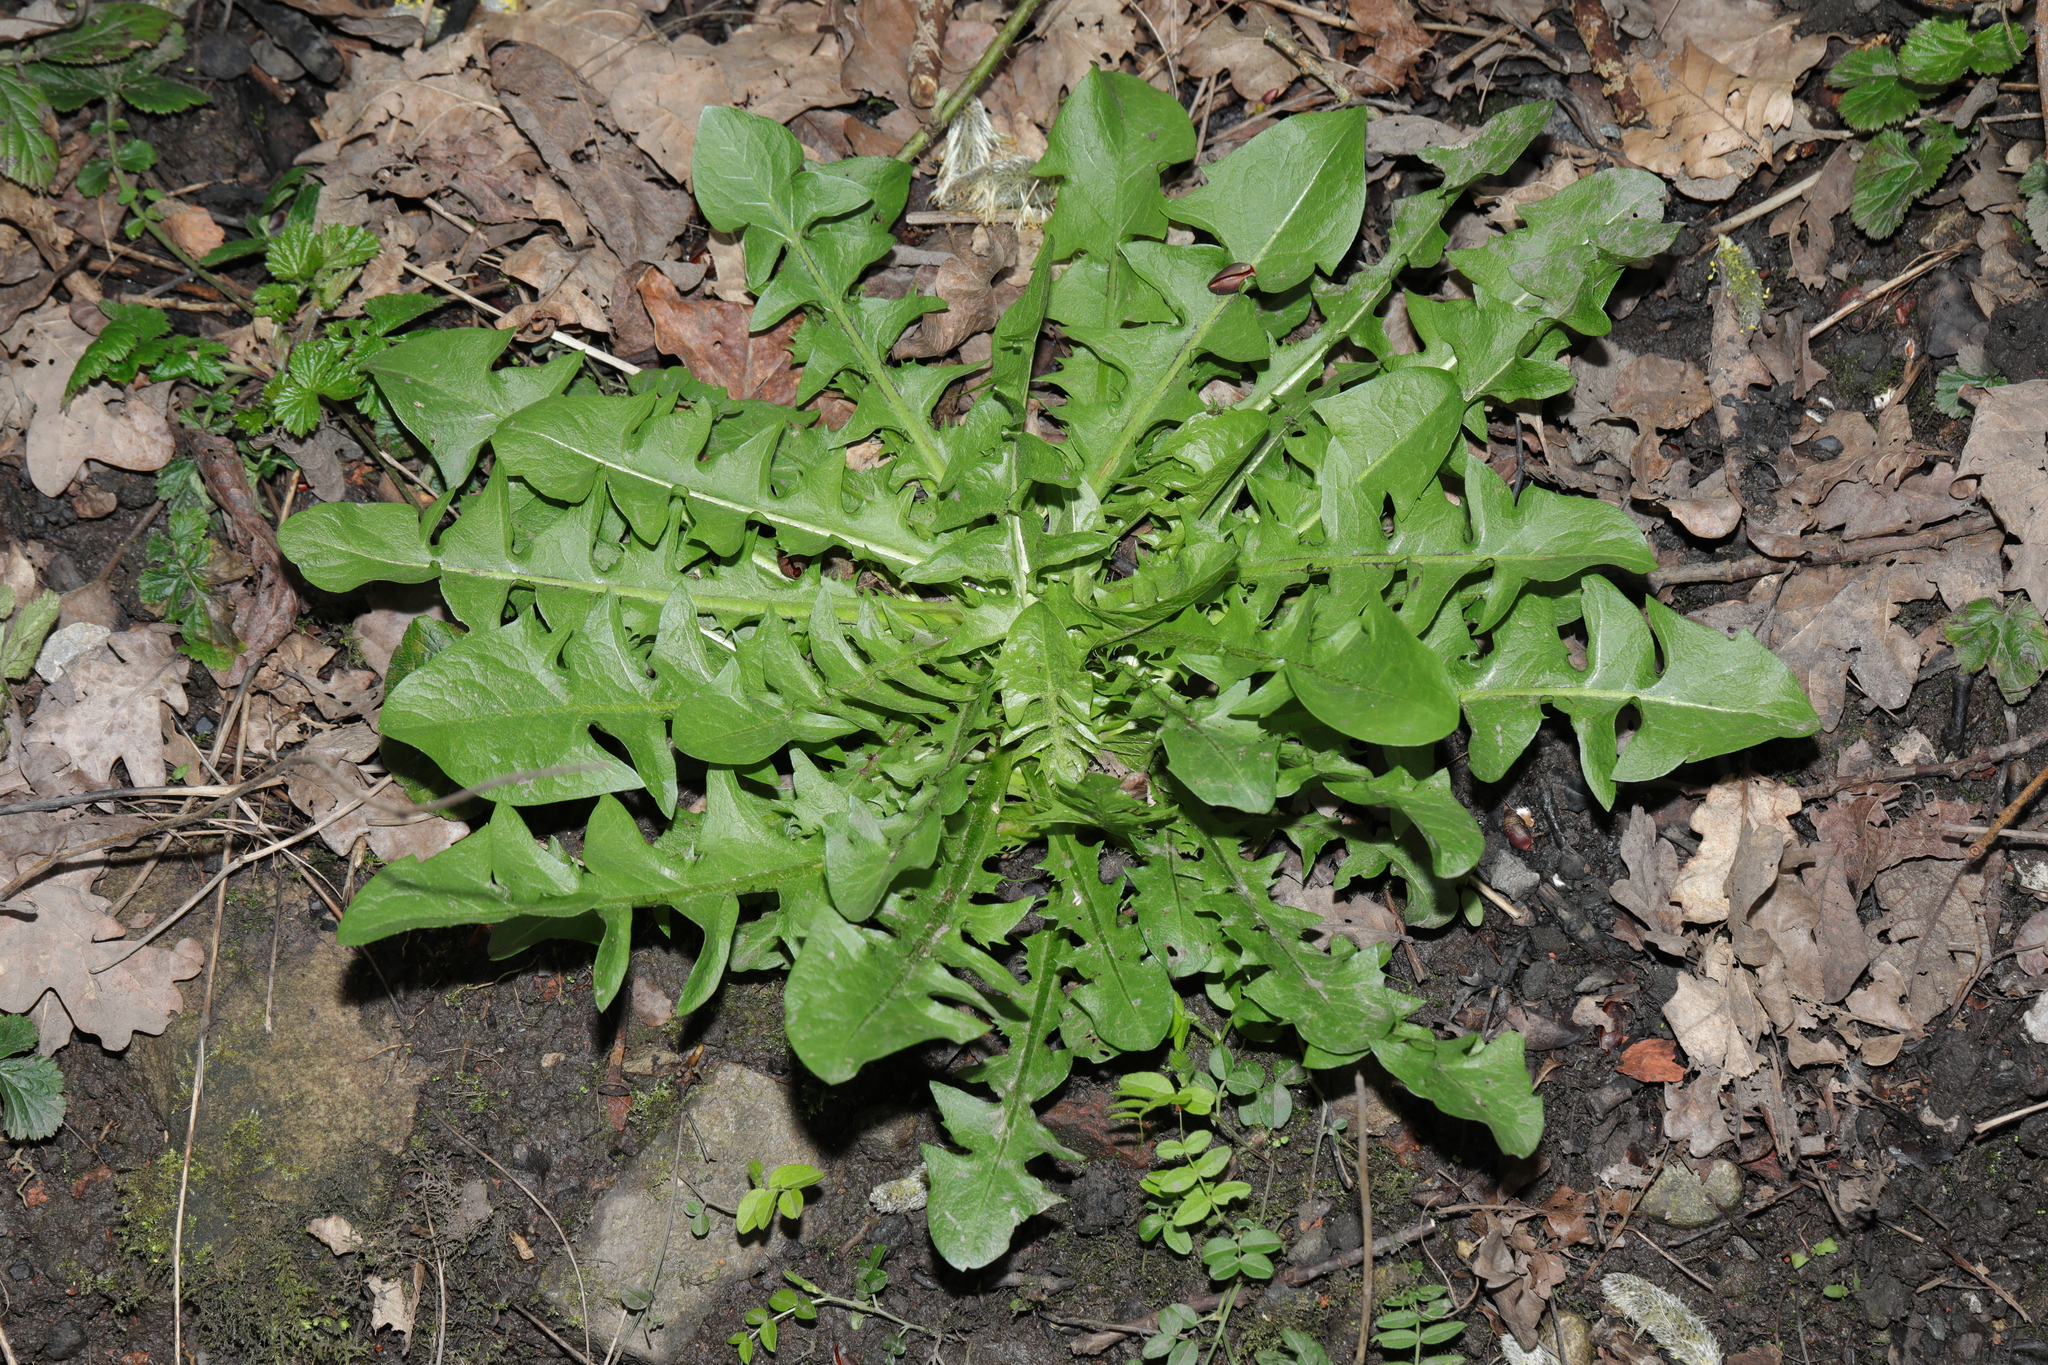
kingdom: Plantae
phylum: Tracheophyta
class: Magnoliopsida
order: Asterales
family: Asteraceae
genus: Taraxacum
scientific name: Taraxacum officinale
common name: Common dandelion
